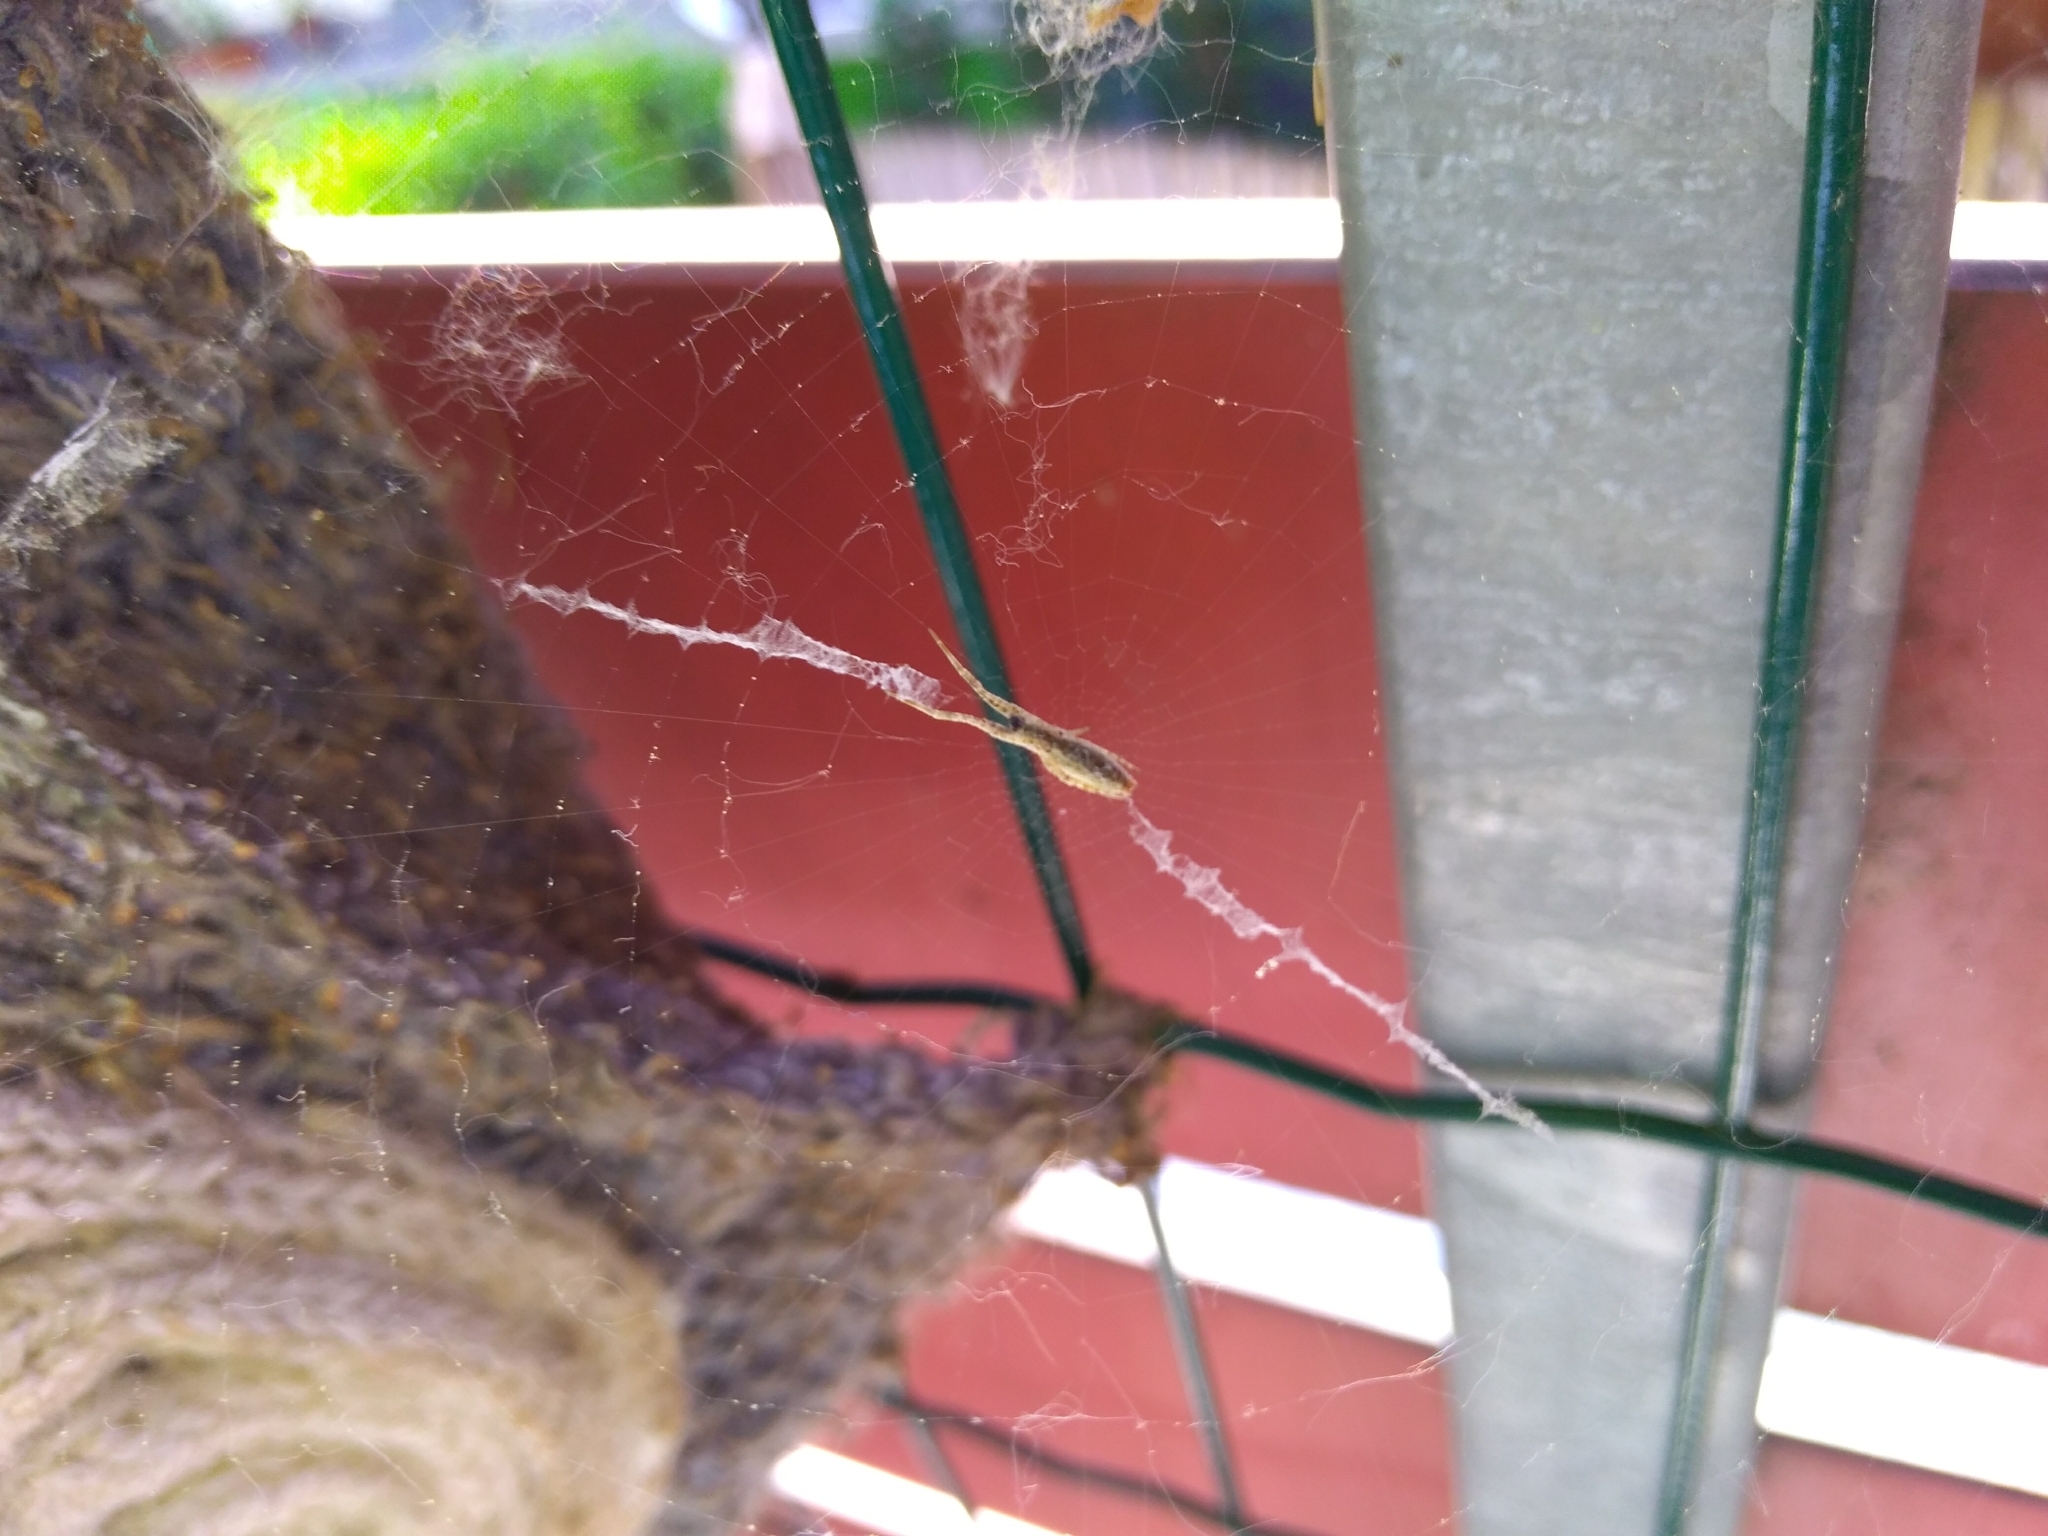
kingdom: Animalia
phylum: Arthropoda
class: Arachnida
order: Araneae
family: Uloboridae
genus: Uloborus
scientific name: Uloborus walckenaerius
